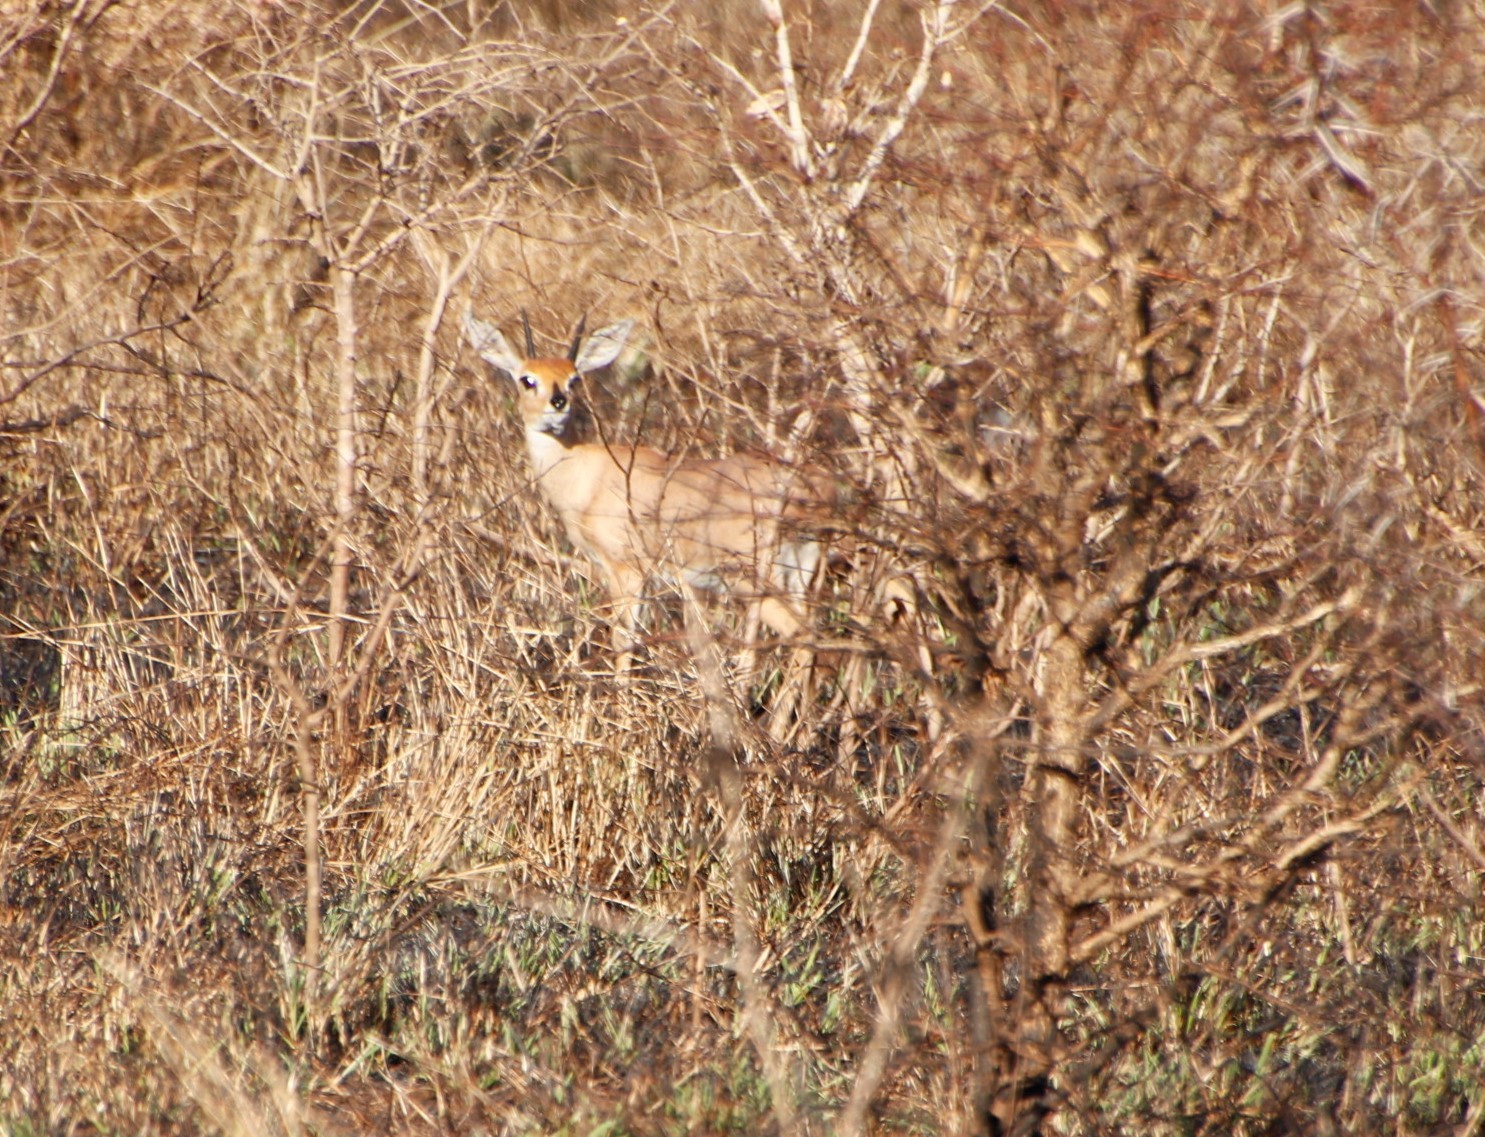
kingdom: Animalia
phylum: Chordata
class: Mammalia
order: Artiodactyla
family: Bovidae
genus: Raphicerus
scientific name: Raphicerus campestris
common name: Steenbok
